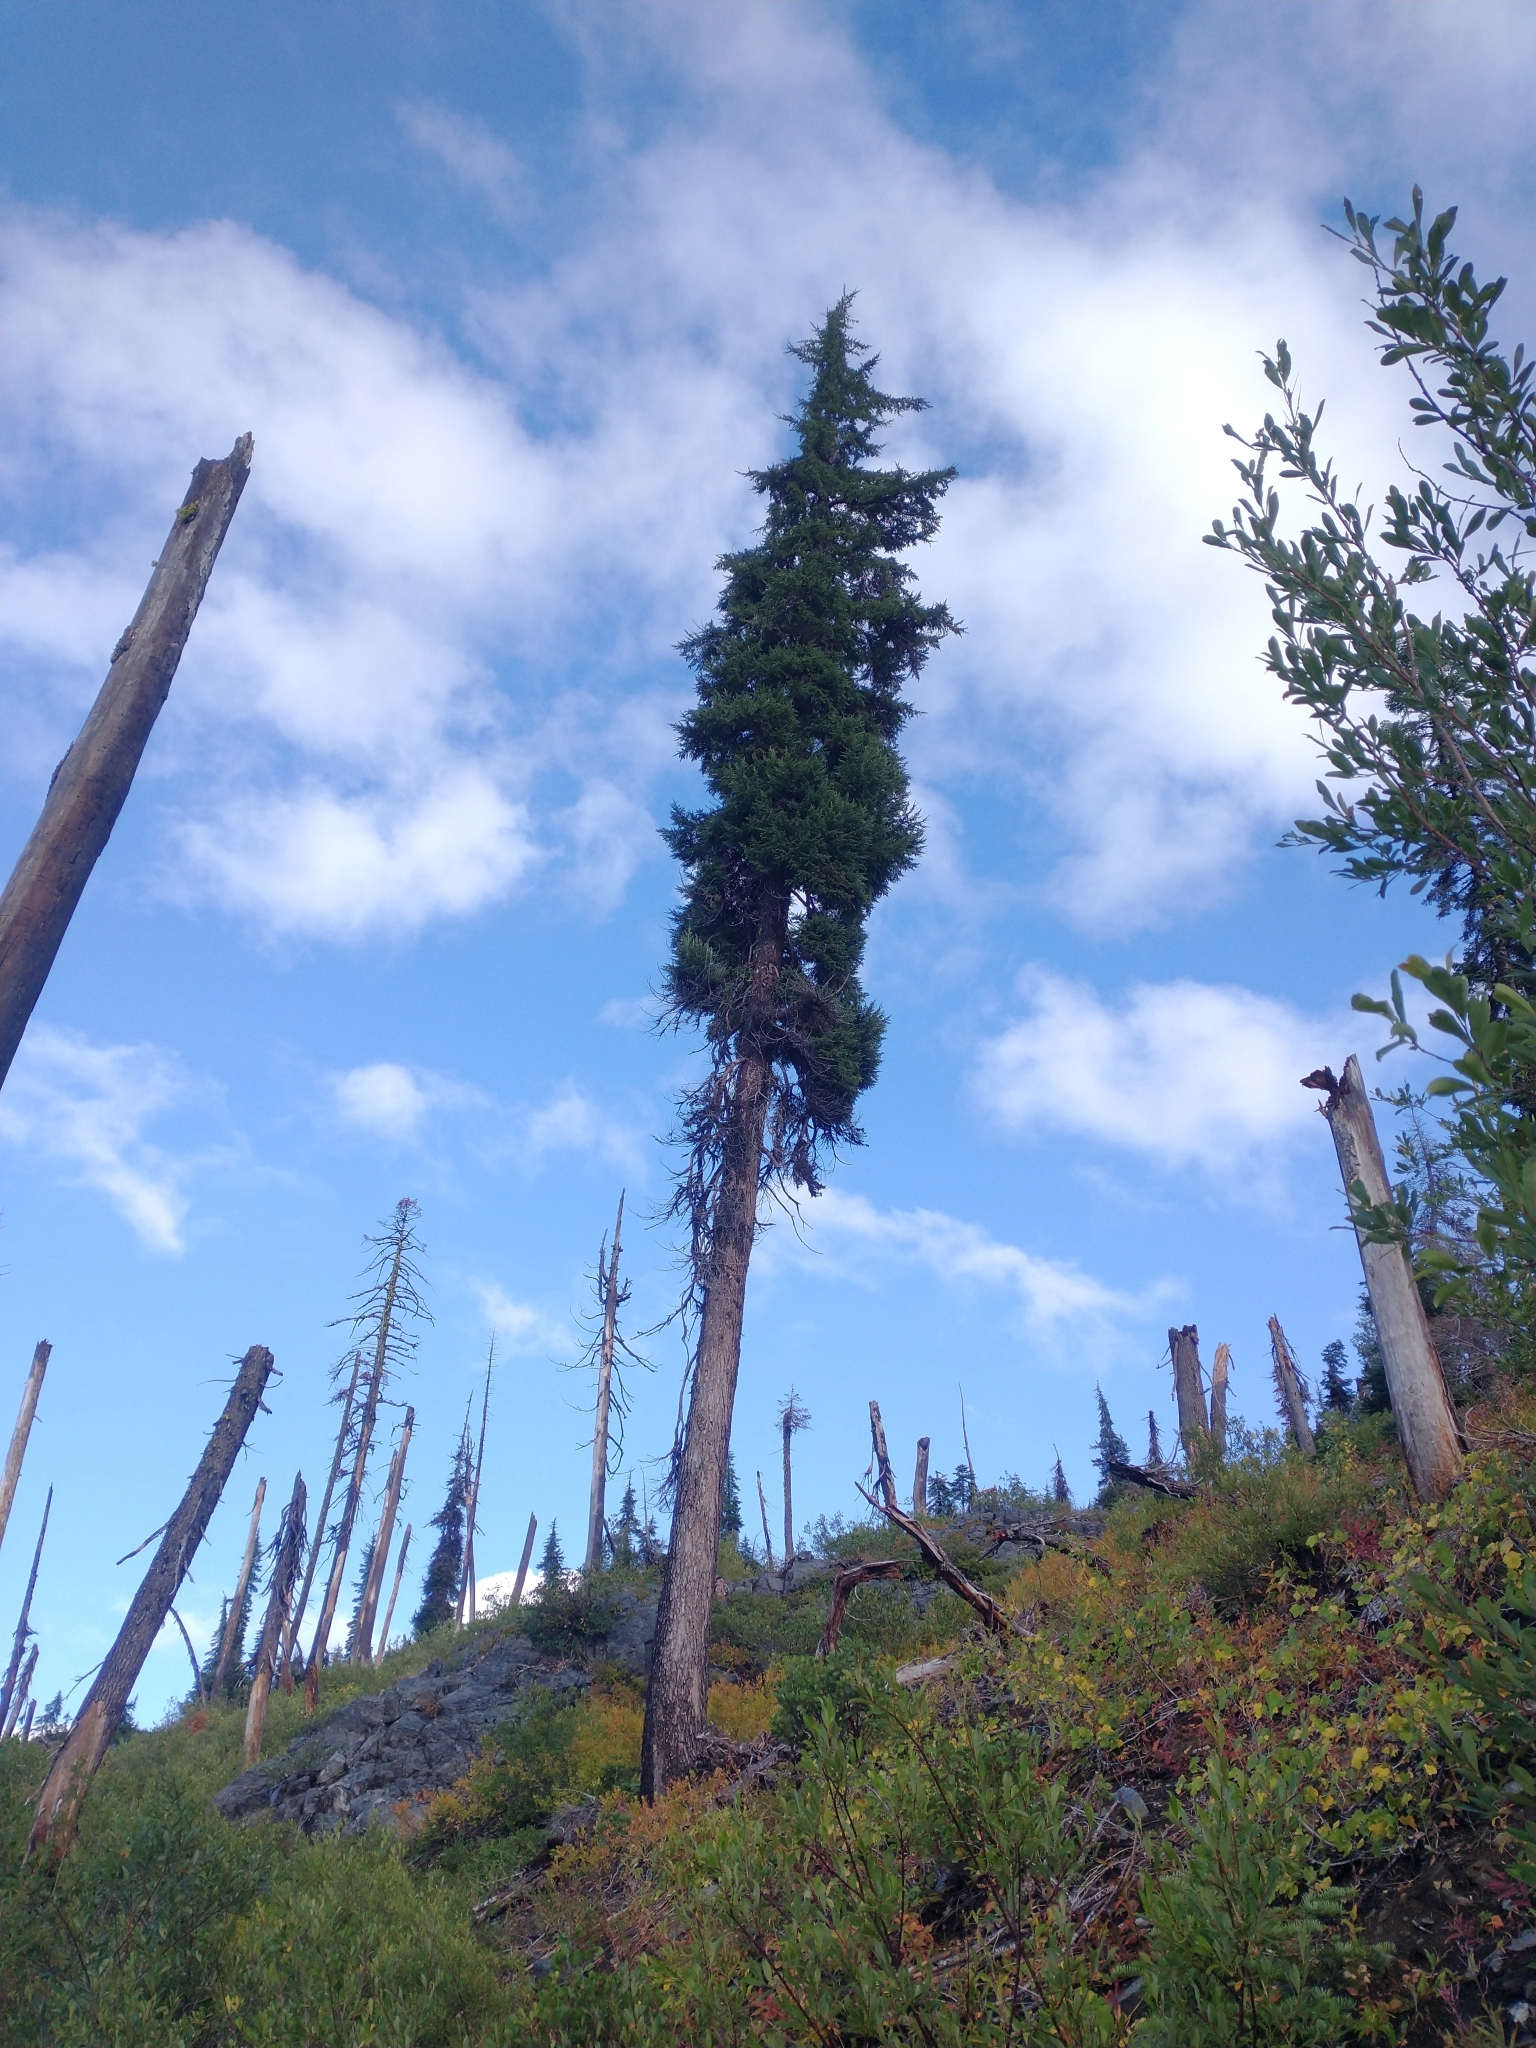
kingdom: Plantae
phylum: Tracheophyta
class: Pinopsida
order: Pinales
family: Pinaceae
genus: Tsuga
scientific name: Tsuga mertensiana
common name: Mountain hemlock
